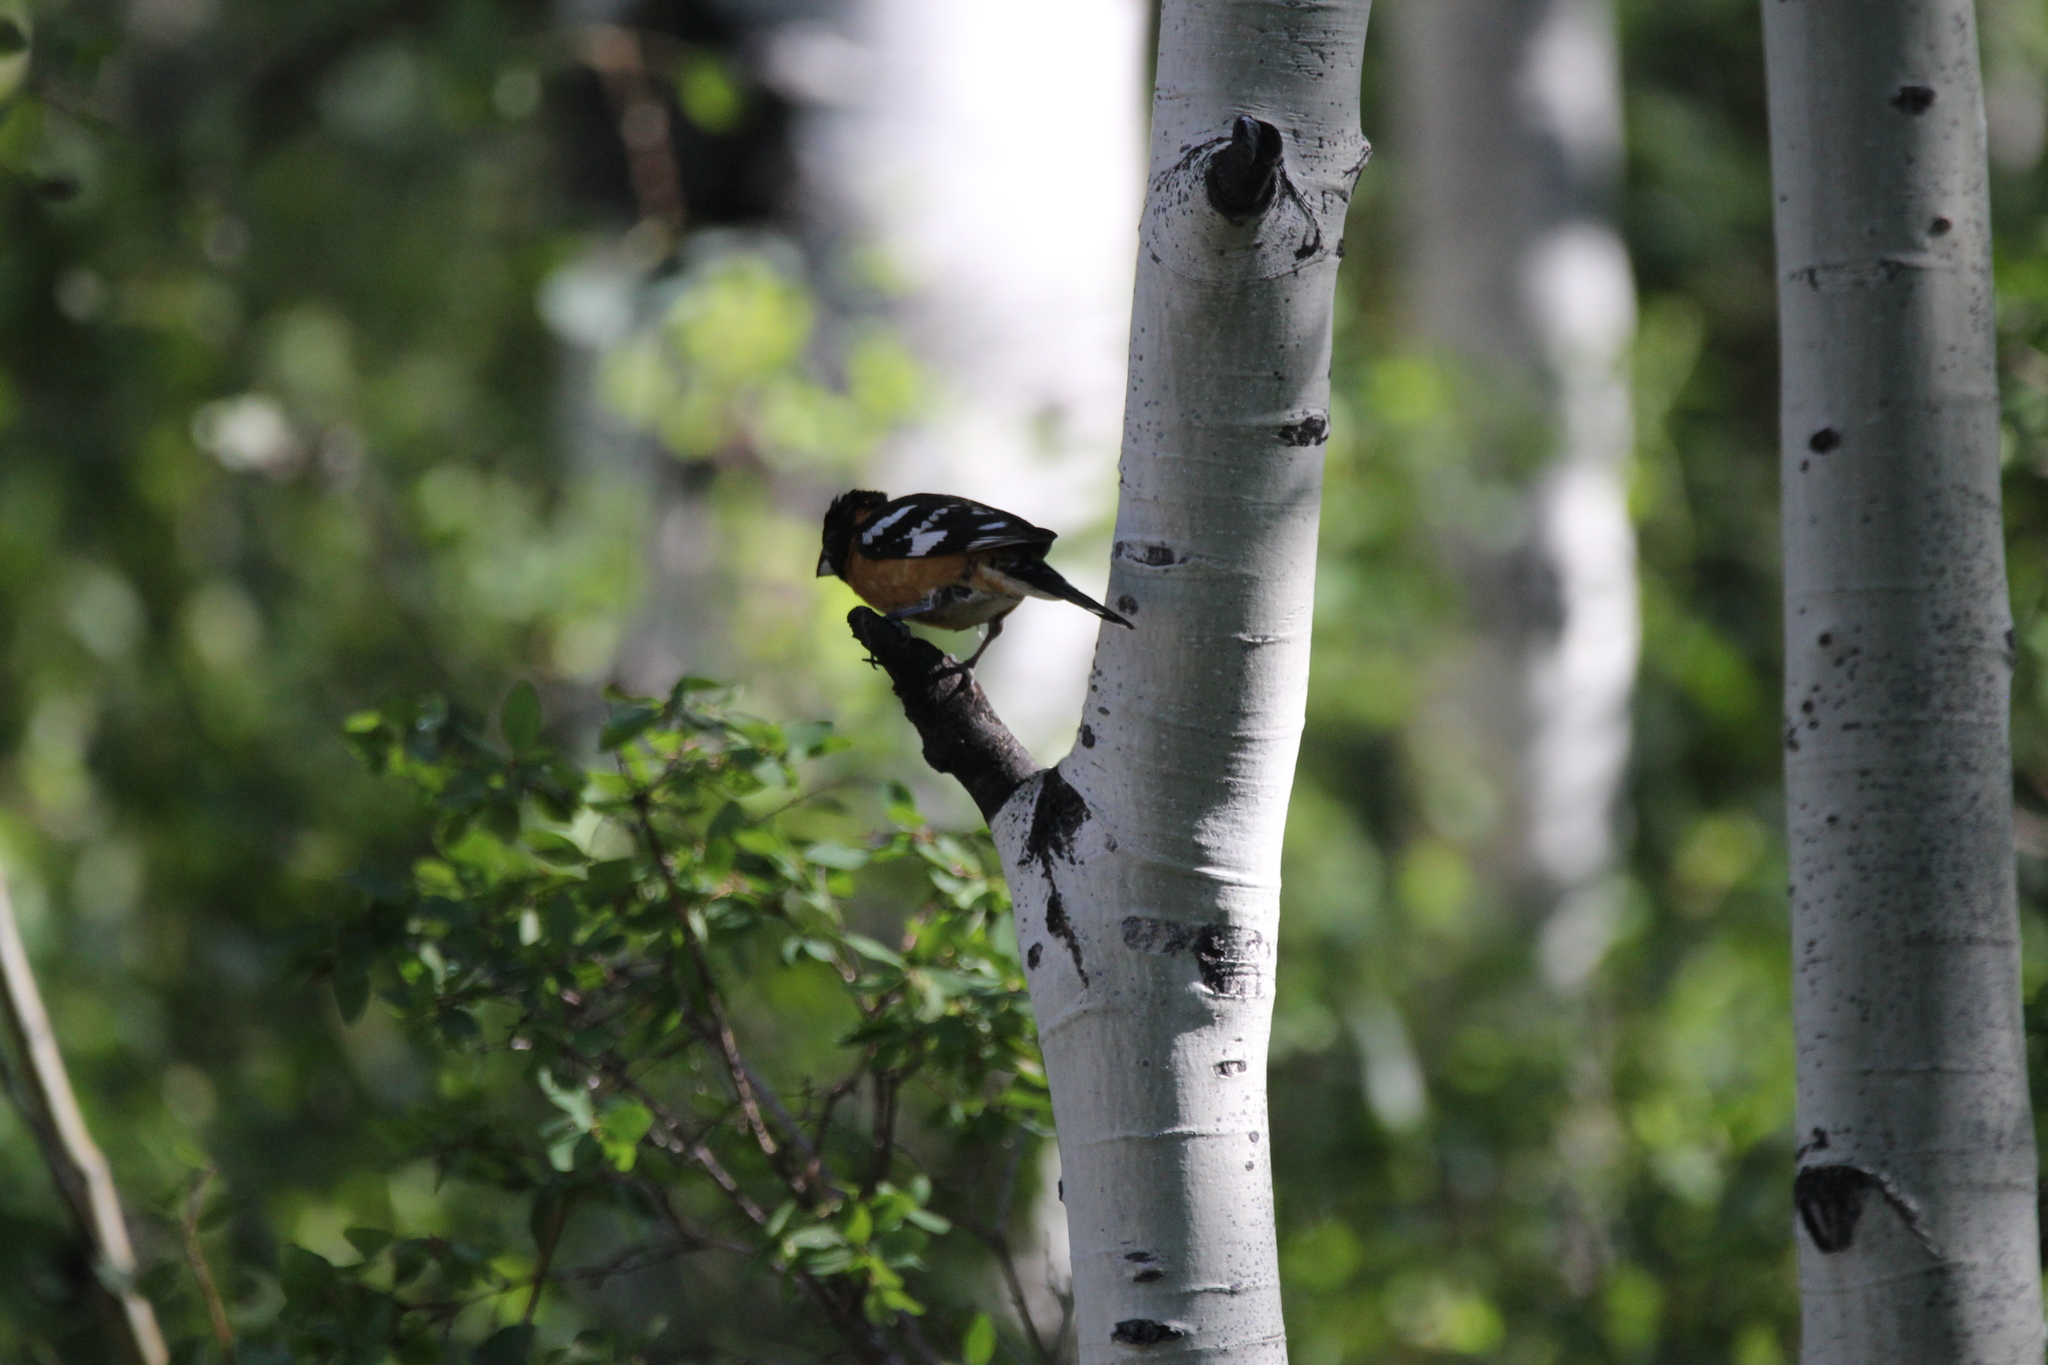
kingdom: Animalia
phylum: Chordata
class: Aves
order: Passeriformes
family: Cardinalidae
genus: Pheucticus
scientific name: Pheucticus melanocephalus
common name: Black-headed grosbeak
